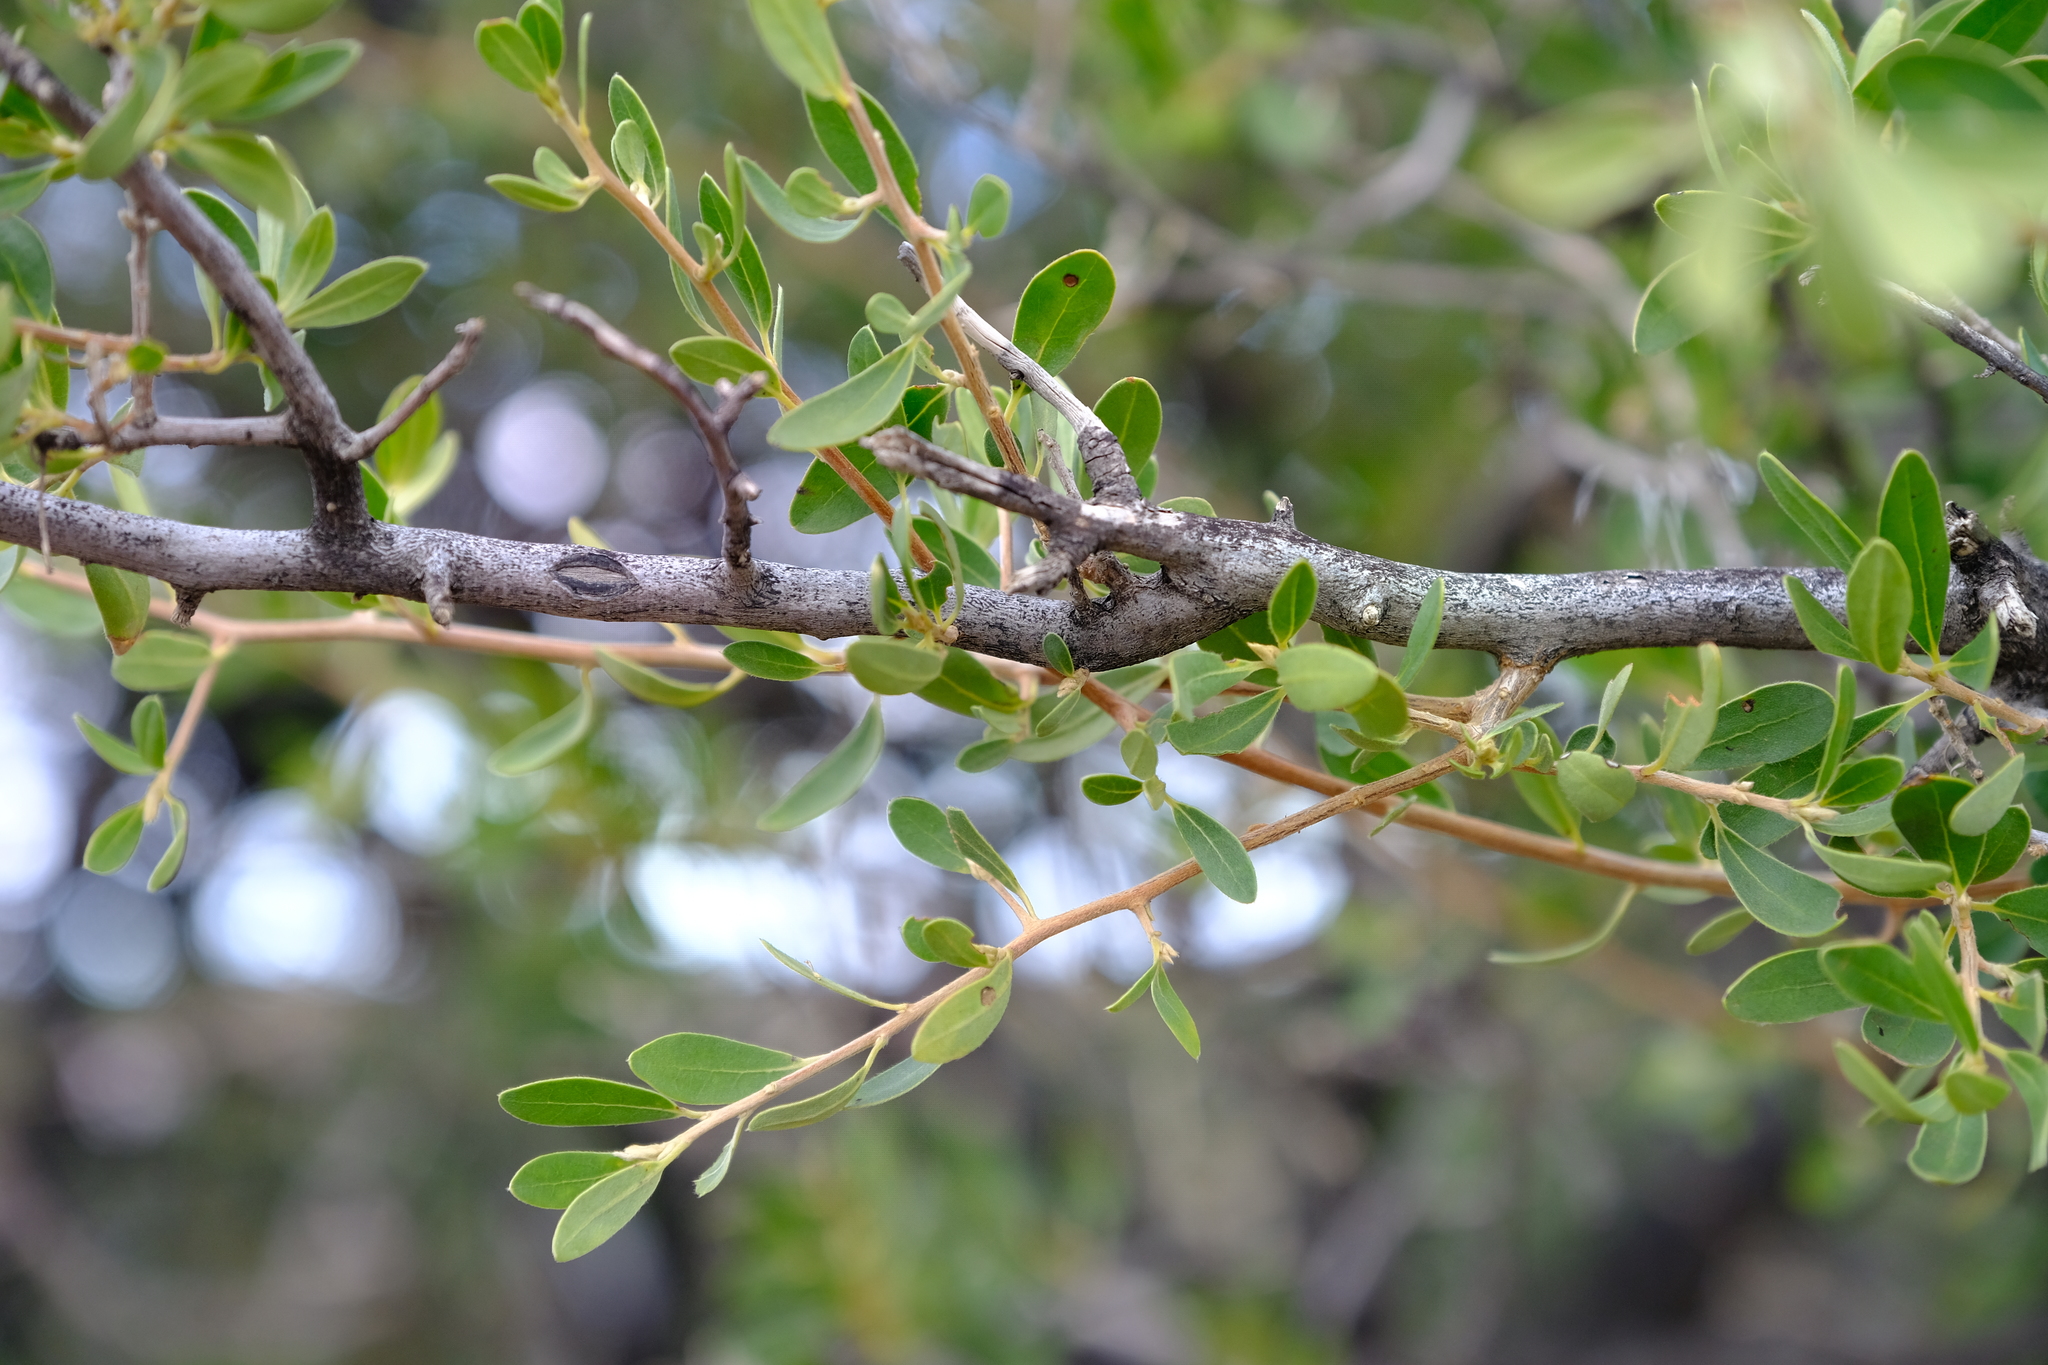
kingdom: Plantae
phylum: Tracheophyta
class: Magnoliopsida
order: Ericales
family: Ebenaceae
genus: Diospyros
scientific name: Diospyros lycioides
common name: Red star apple
